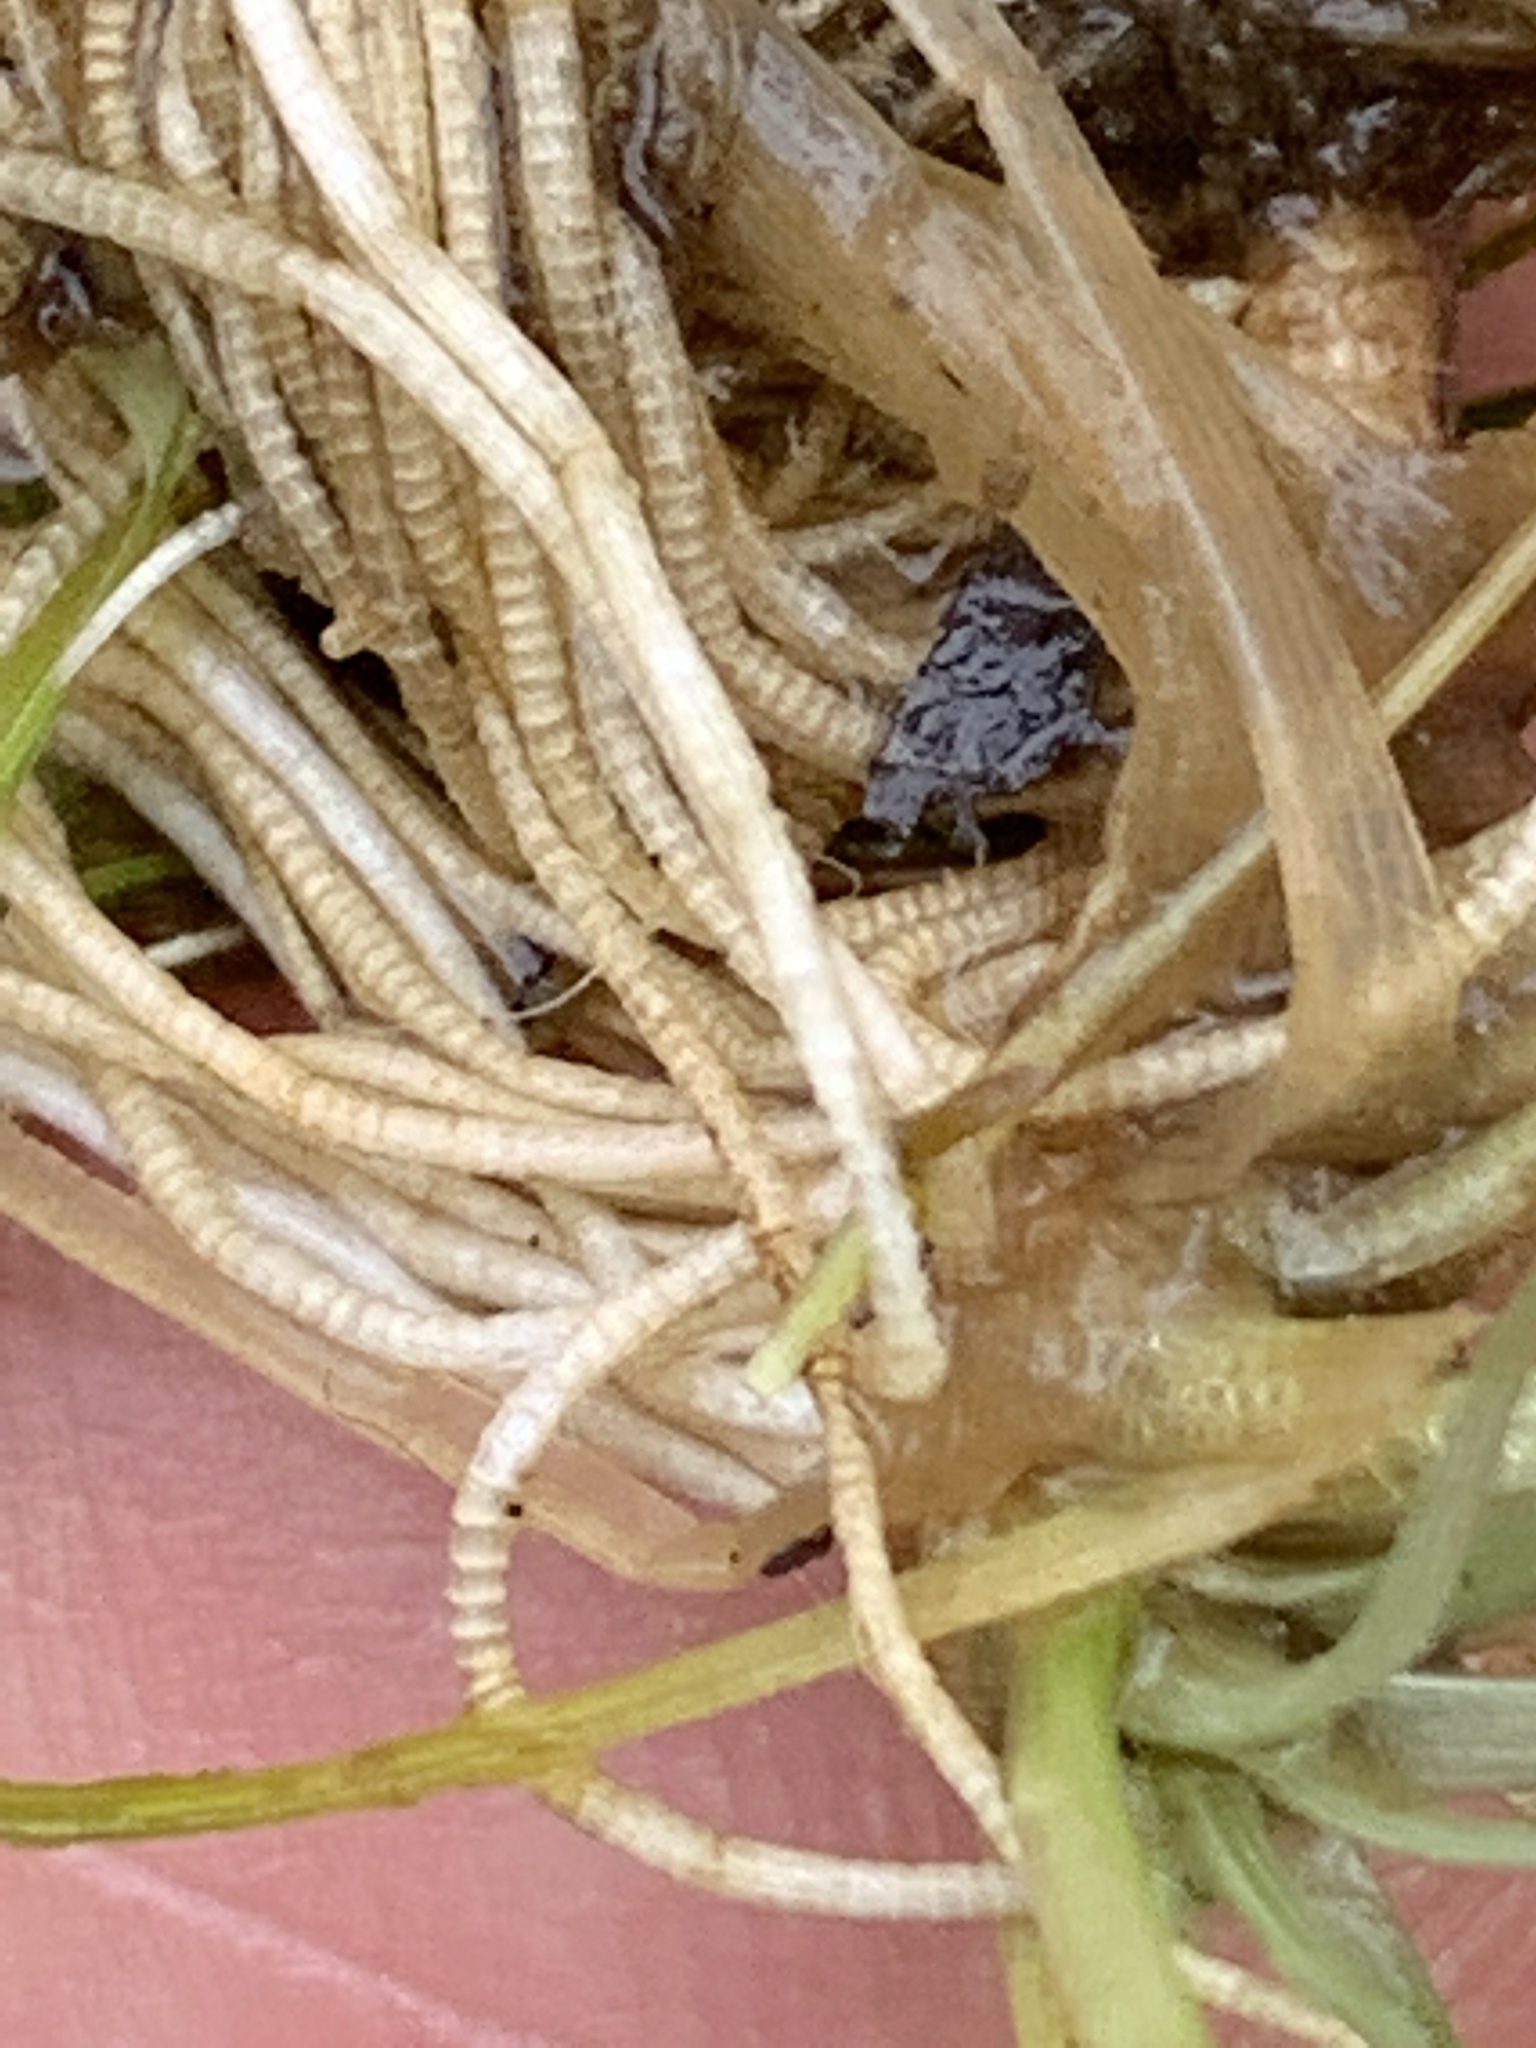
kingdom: Plantae
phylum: Tracheophyta
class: Liliopsida
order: Poales
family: Eriocaulaceae
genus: Eriocaulon
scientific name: Eriocaulon aquaticum
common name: Pipewort
